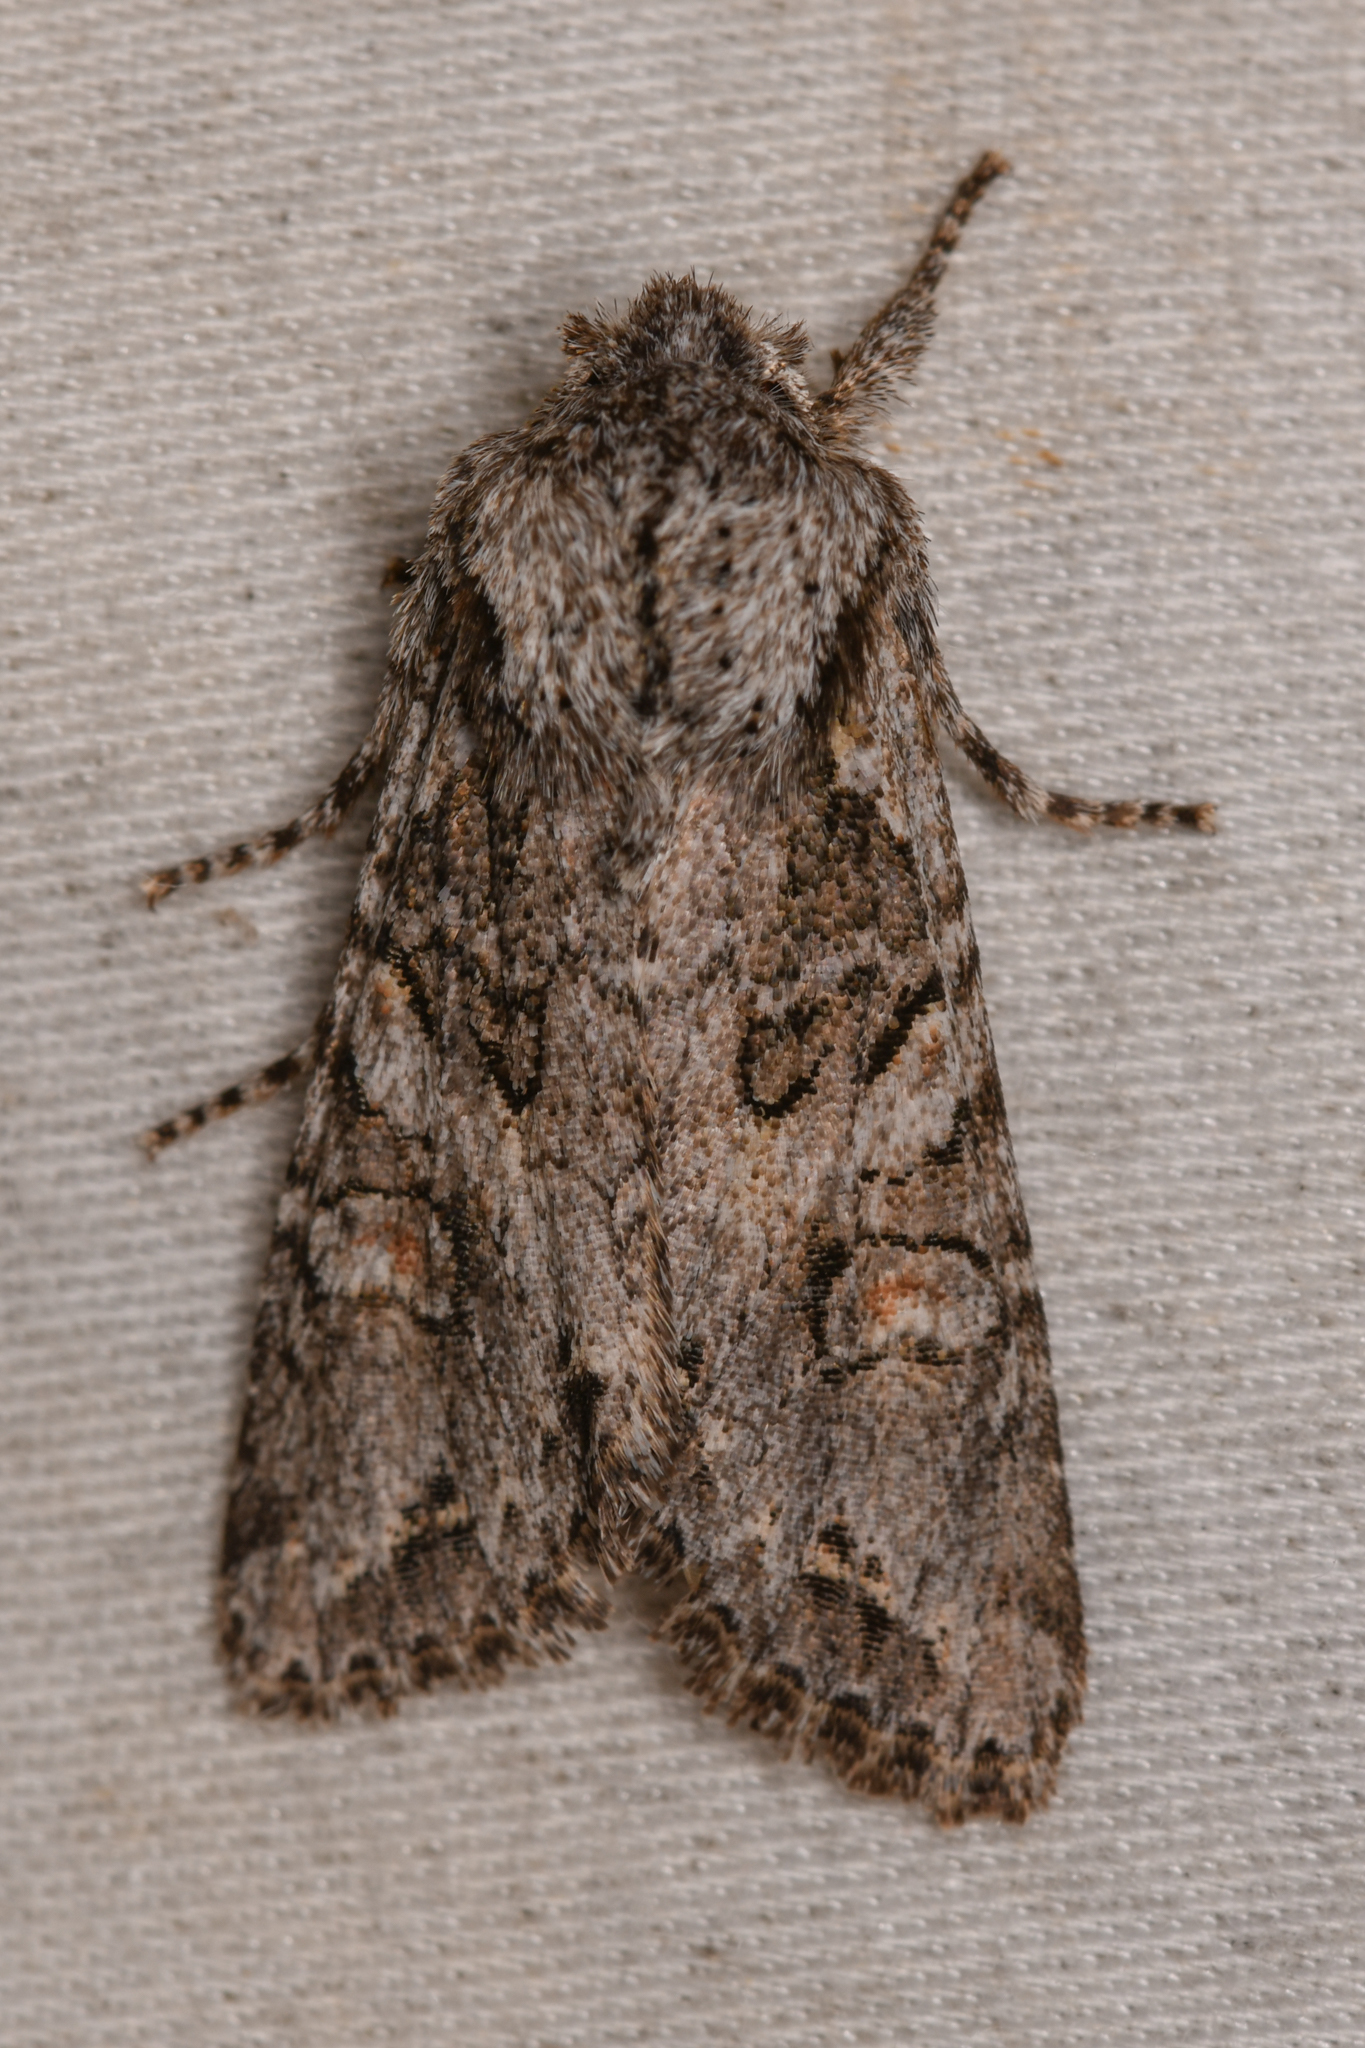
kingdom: Animalia
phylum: Arthropoda
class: Insecta
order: Lepidoptera
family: Noctuidae
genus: Egira
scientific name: Egira hiemalis
